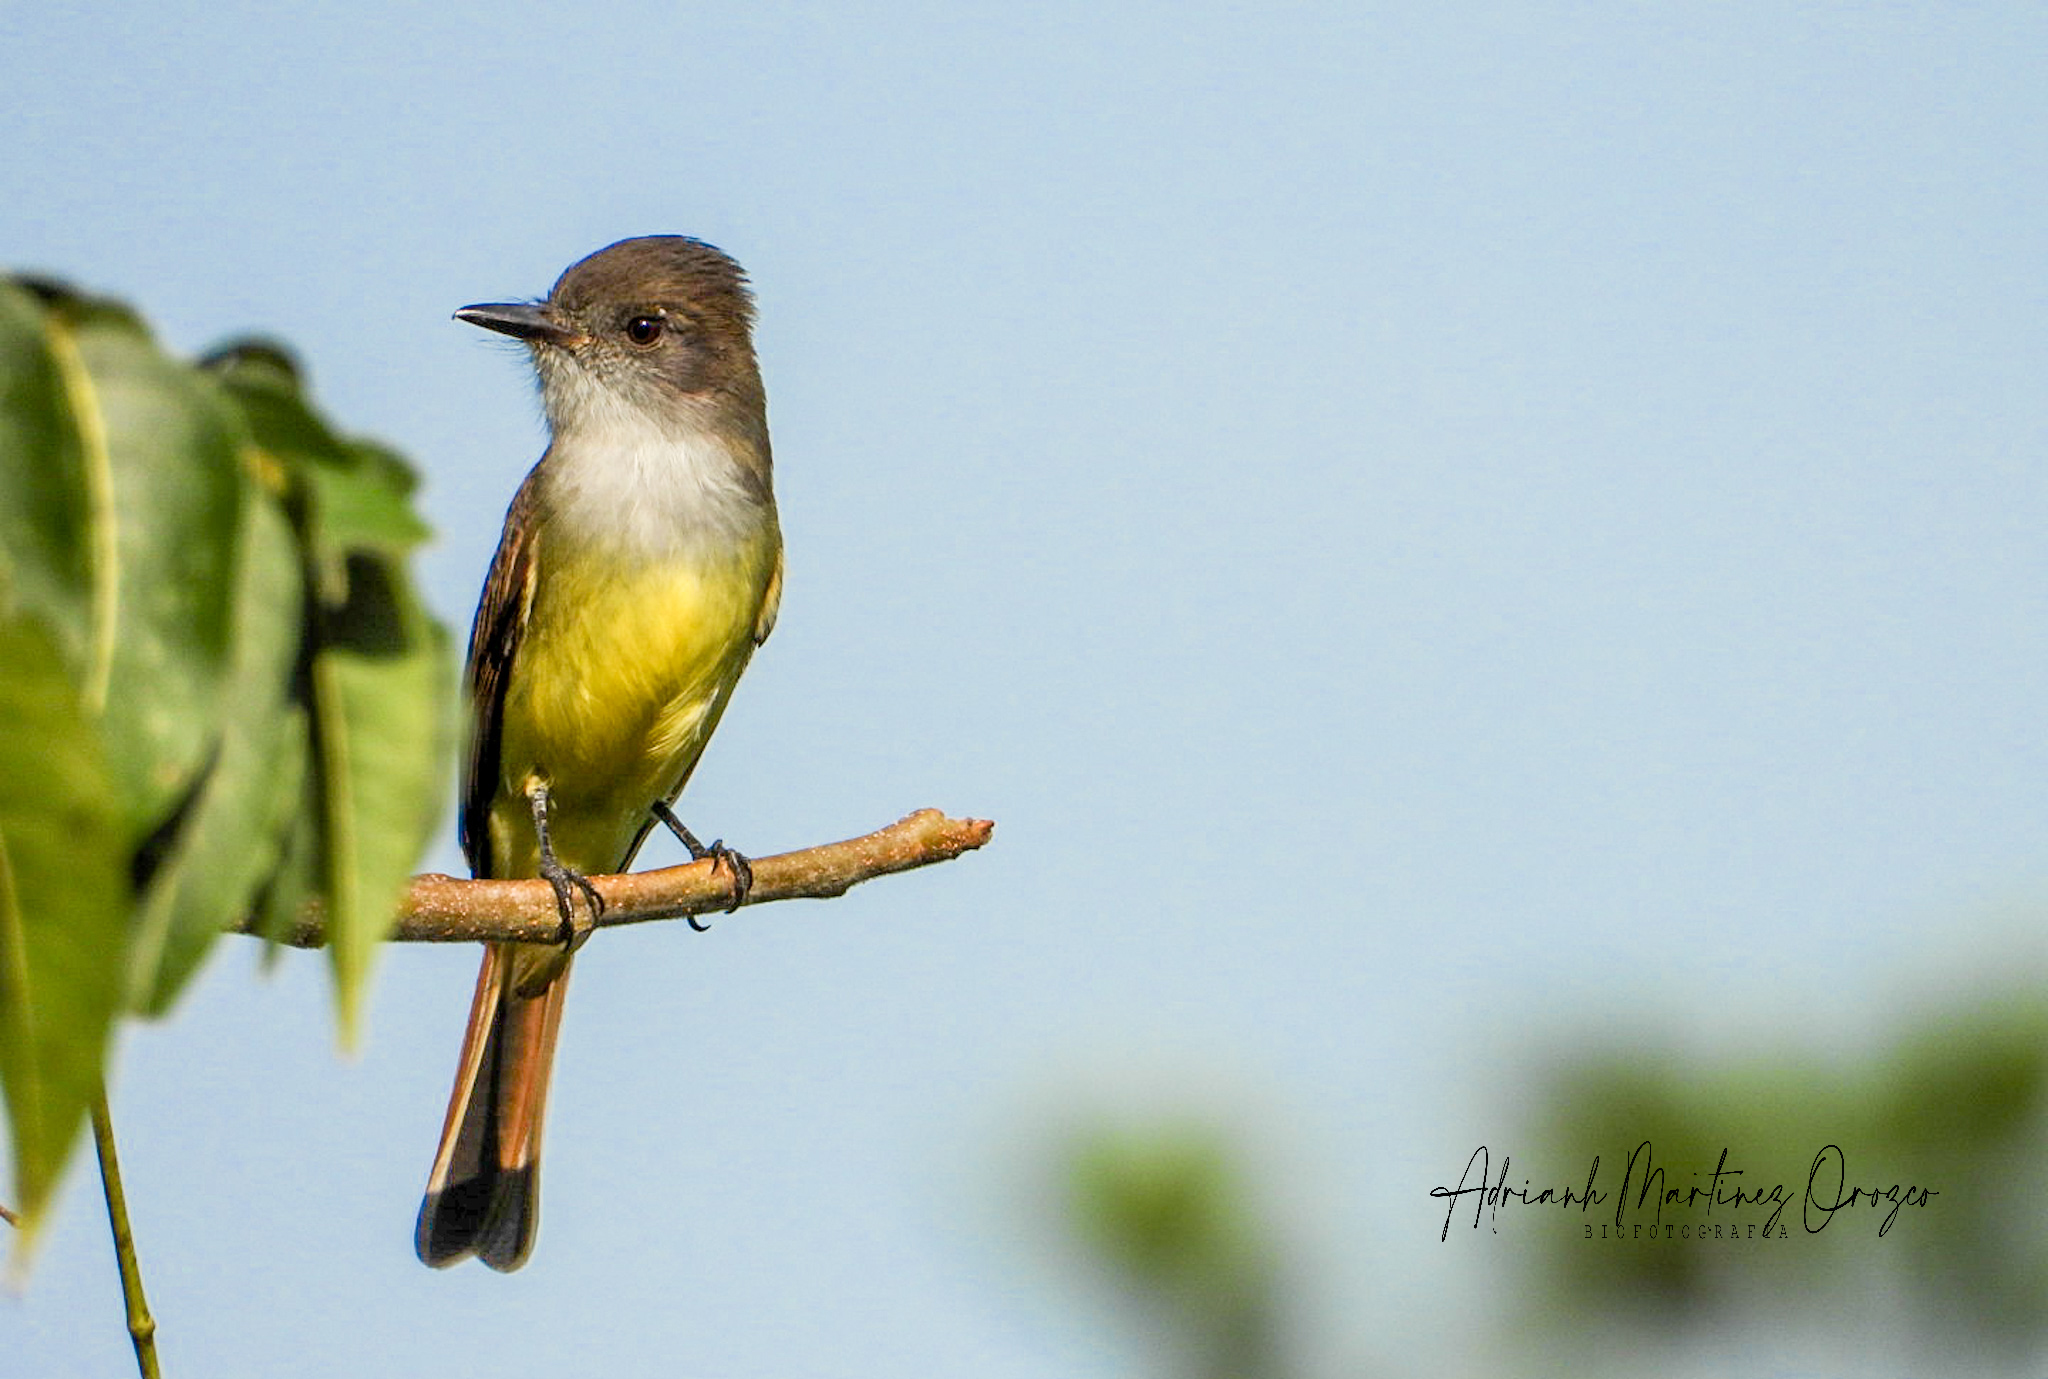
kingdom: Animalia
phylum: Chordata
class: Aves
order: Passeriformes
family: Tyrannidae
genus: Myiarchus
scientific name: Myiarchus tuberculifer
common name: Dusky-capped flycatcher
